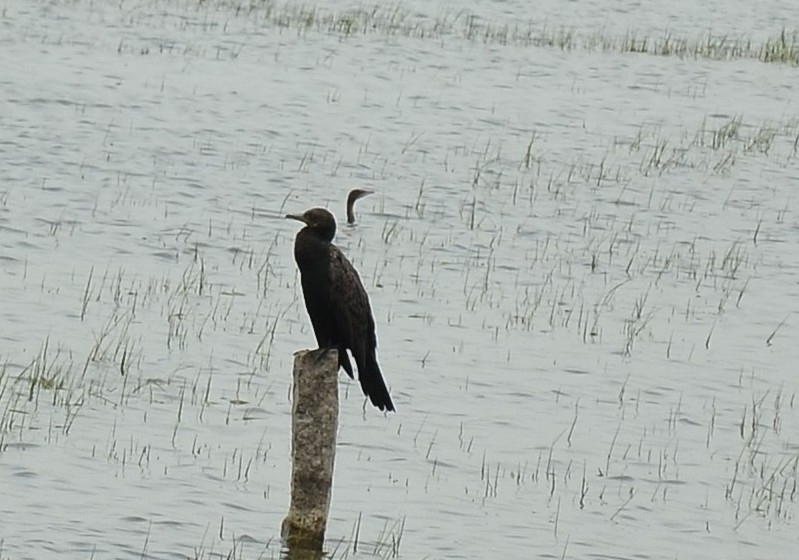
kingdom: Animalia
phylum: Chordata
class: Aves
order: Suliformes
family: Phalacrocoracidae
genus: Phalacrocorax
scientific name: Phalacrocorax fuscicollis
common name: Indian cormorant
